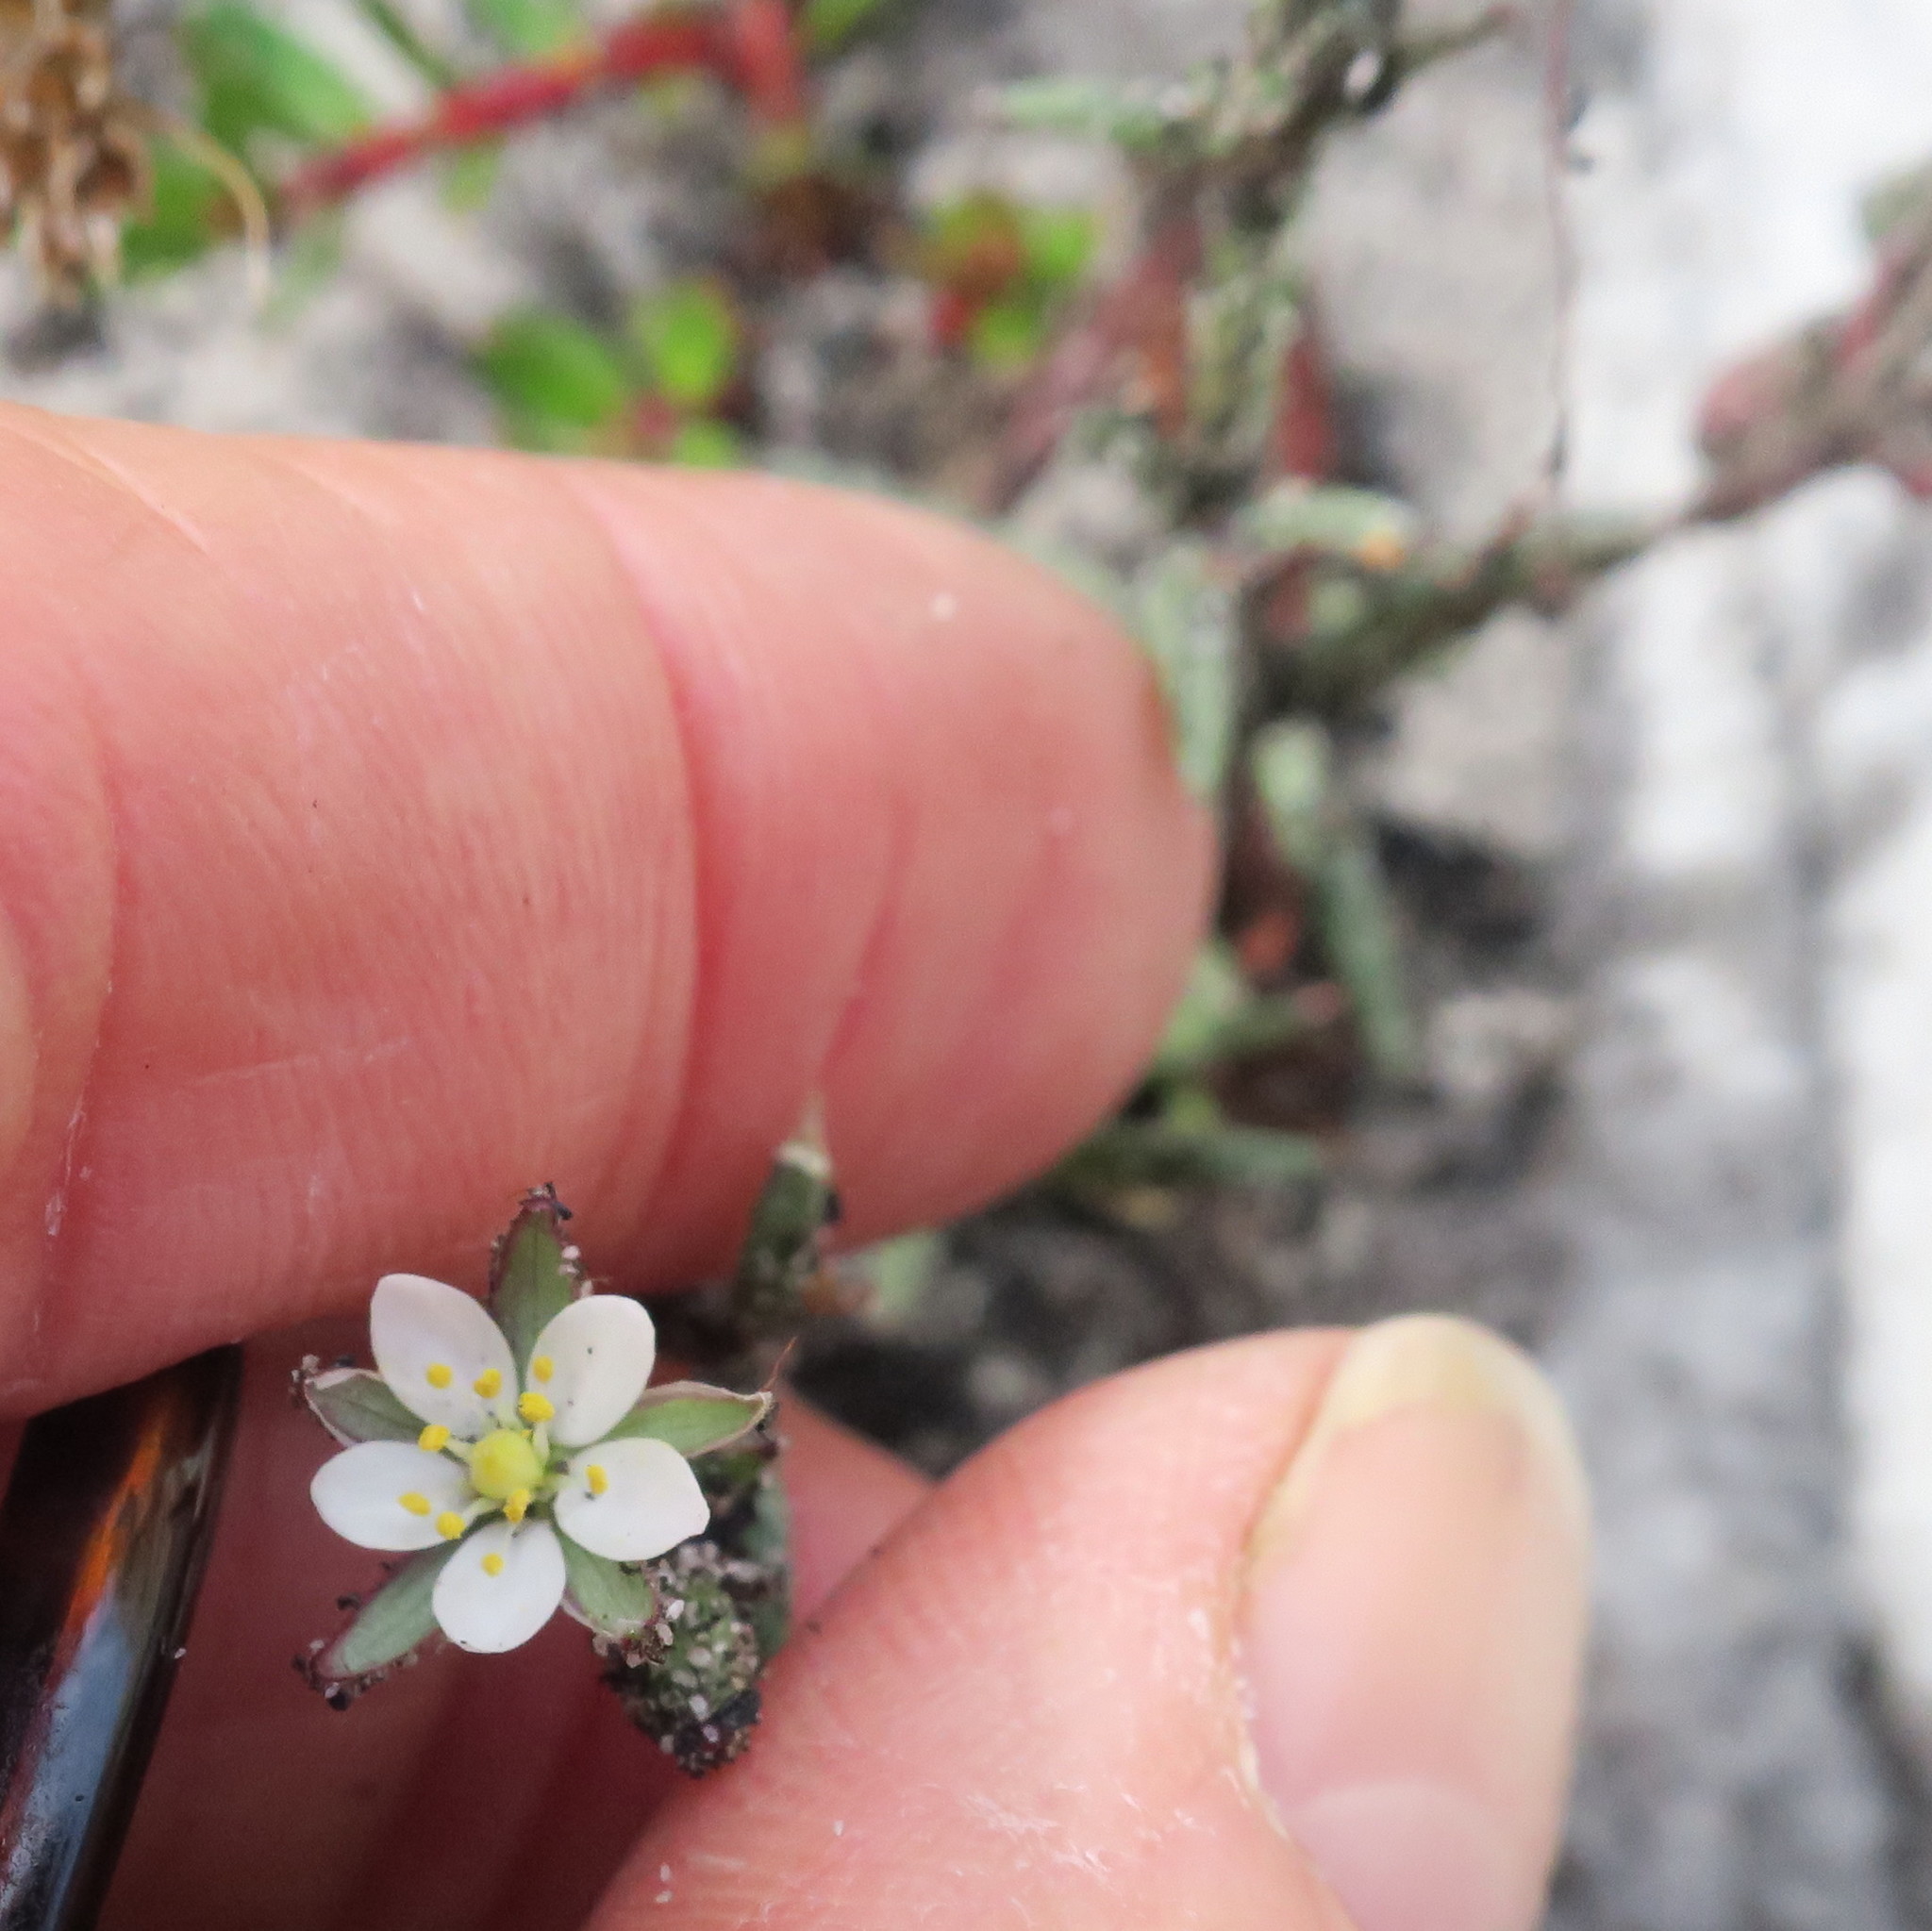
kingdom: Plantae
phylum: Tracheophyta
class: Magnoliopsida
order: Caryophyllales
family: Caryophyllaceae
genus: Spergularia
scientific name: Spergularia media
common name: Greater sea-spurrey
